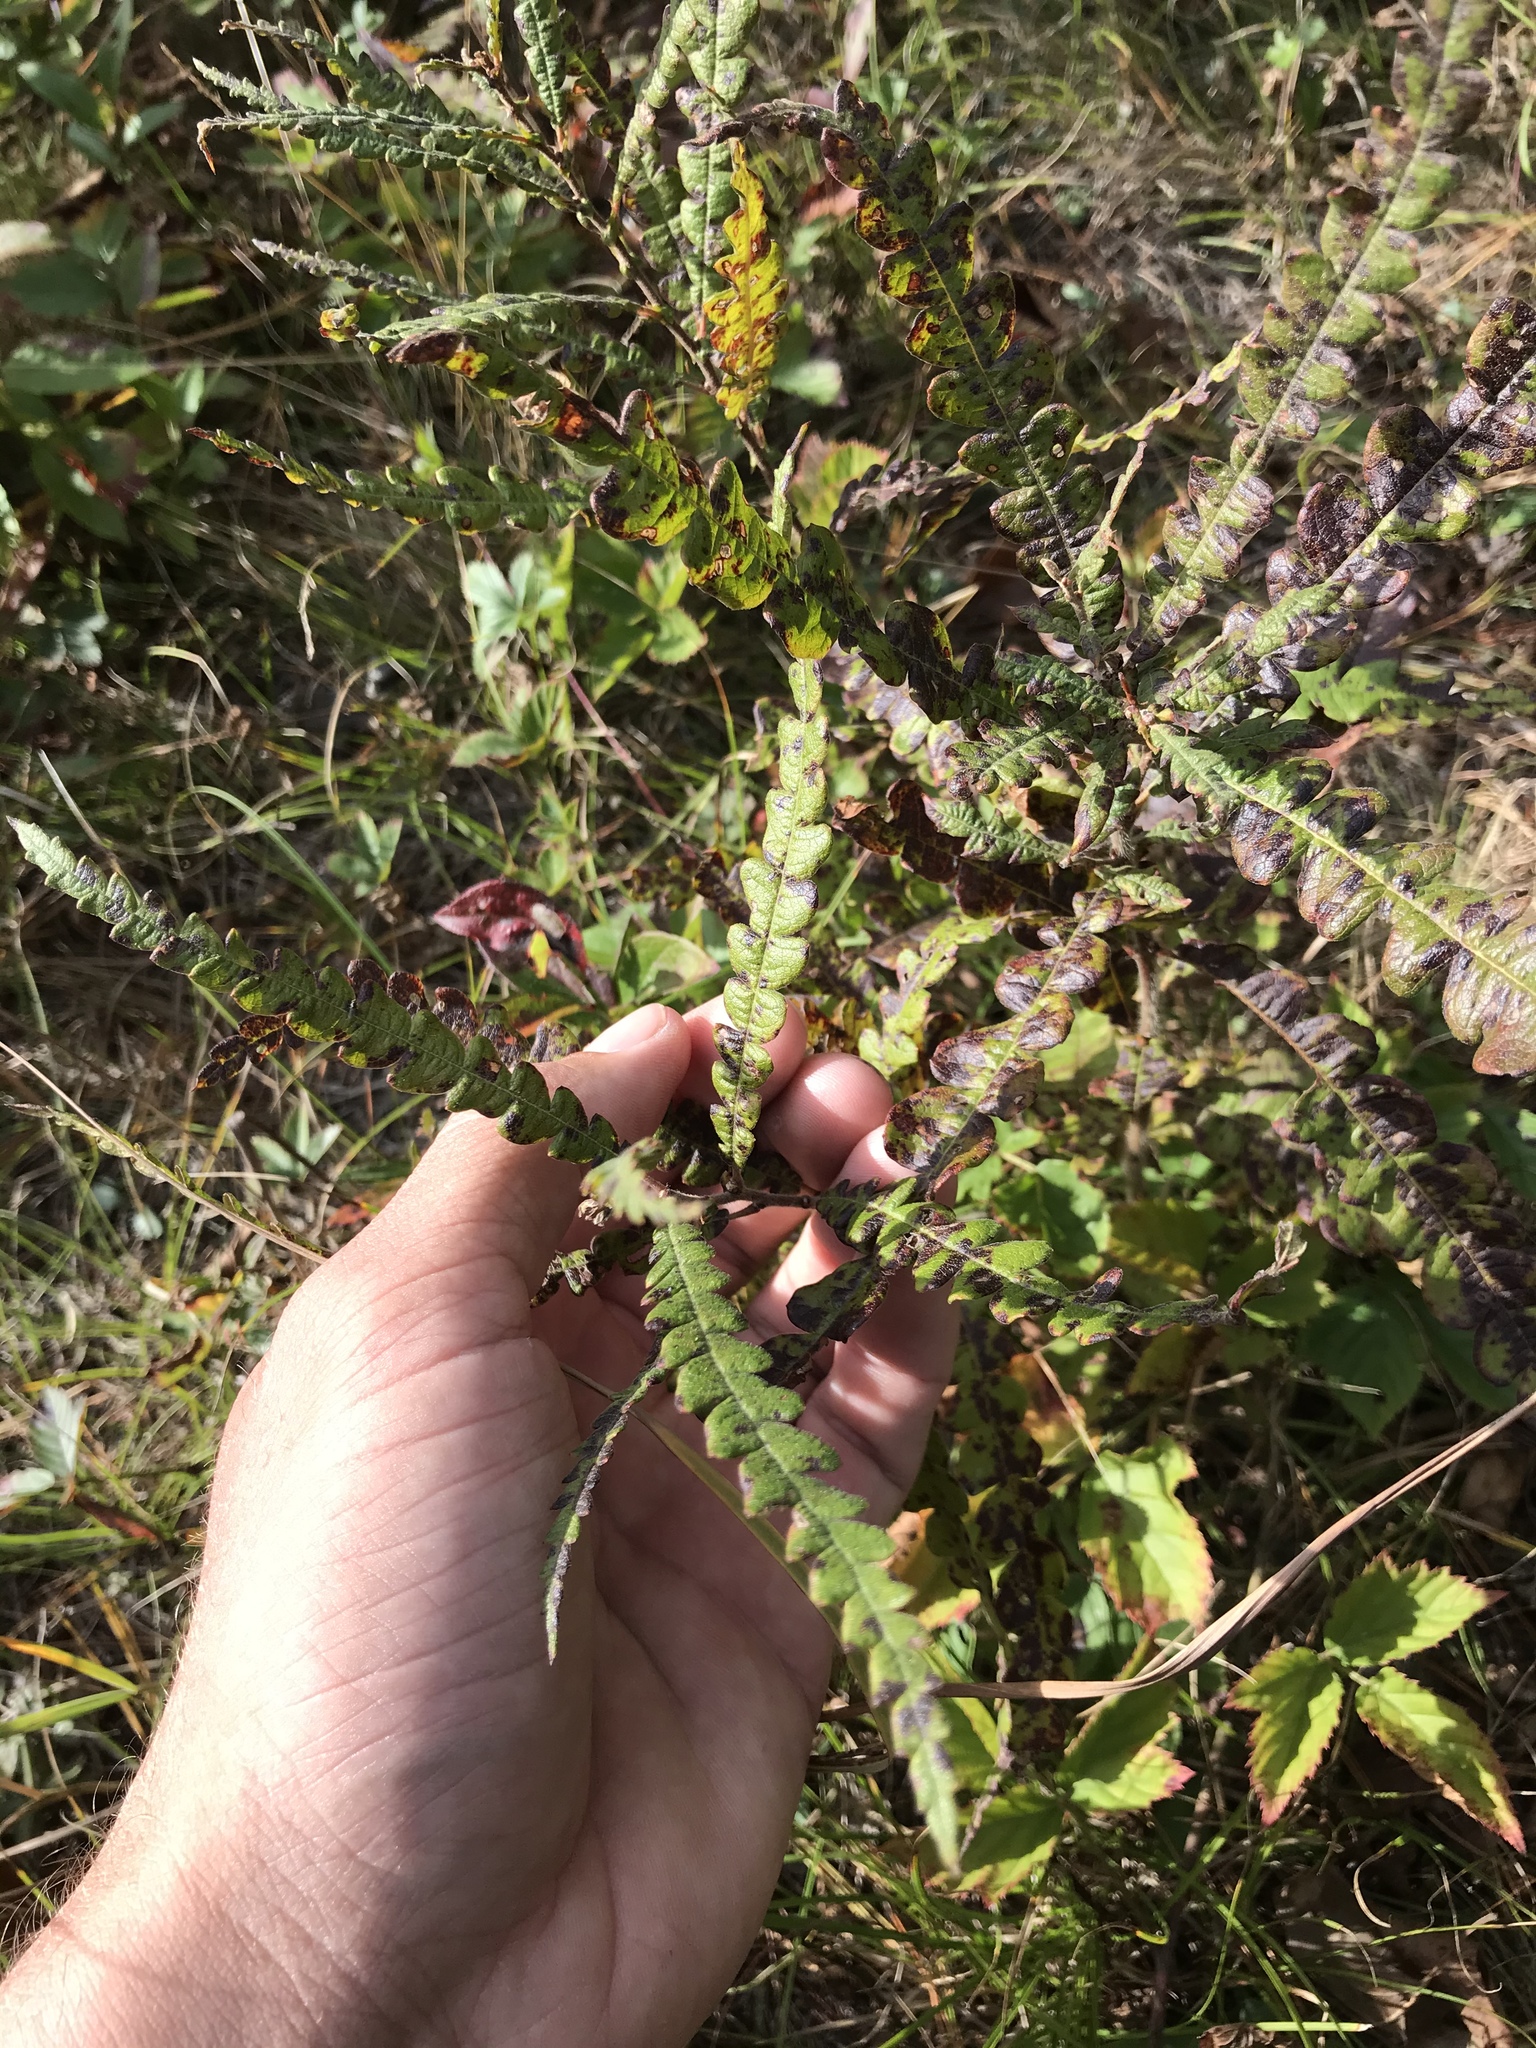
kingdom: Plantae
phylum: Tracheophyta
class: Magnoliopsida
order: Fagales
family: Myricaceae
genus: Comptonia
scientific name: Comptonia peregrina
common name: Sweet-fern
